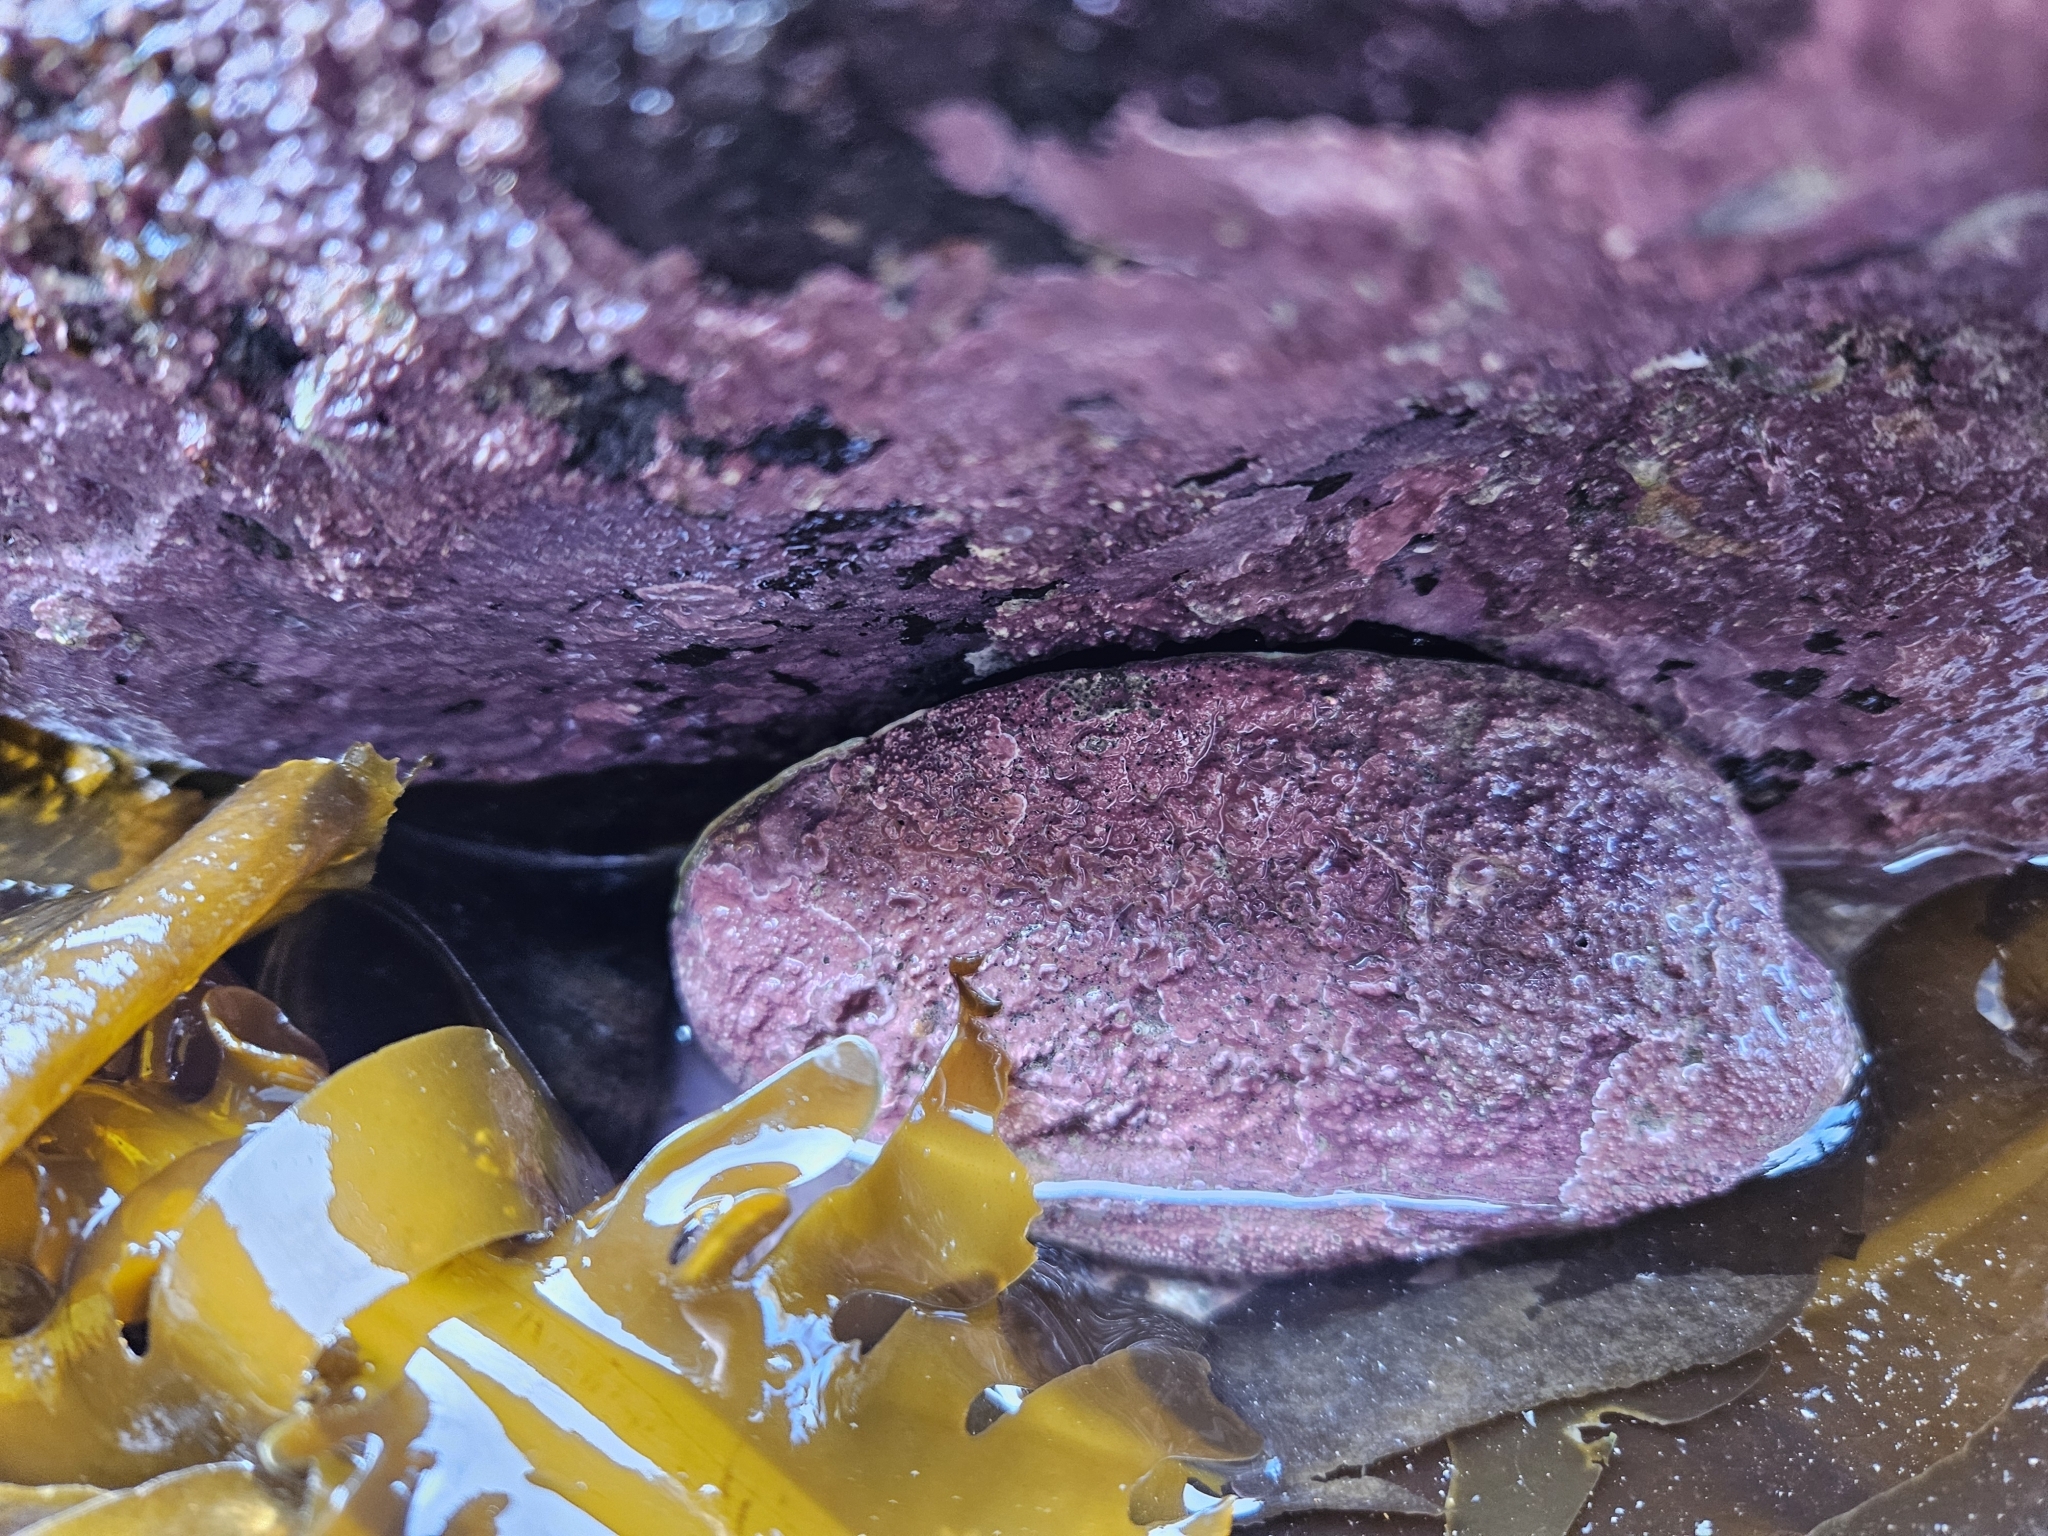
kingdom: Animalia
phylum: Mollusca
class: Gastropoda
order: Lepetellida
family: Haliotidae
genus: Haliotis
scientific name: Haliotis iris
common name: Abalone
